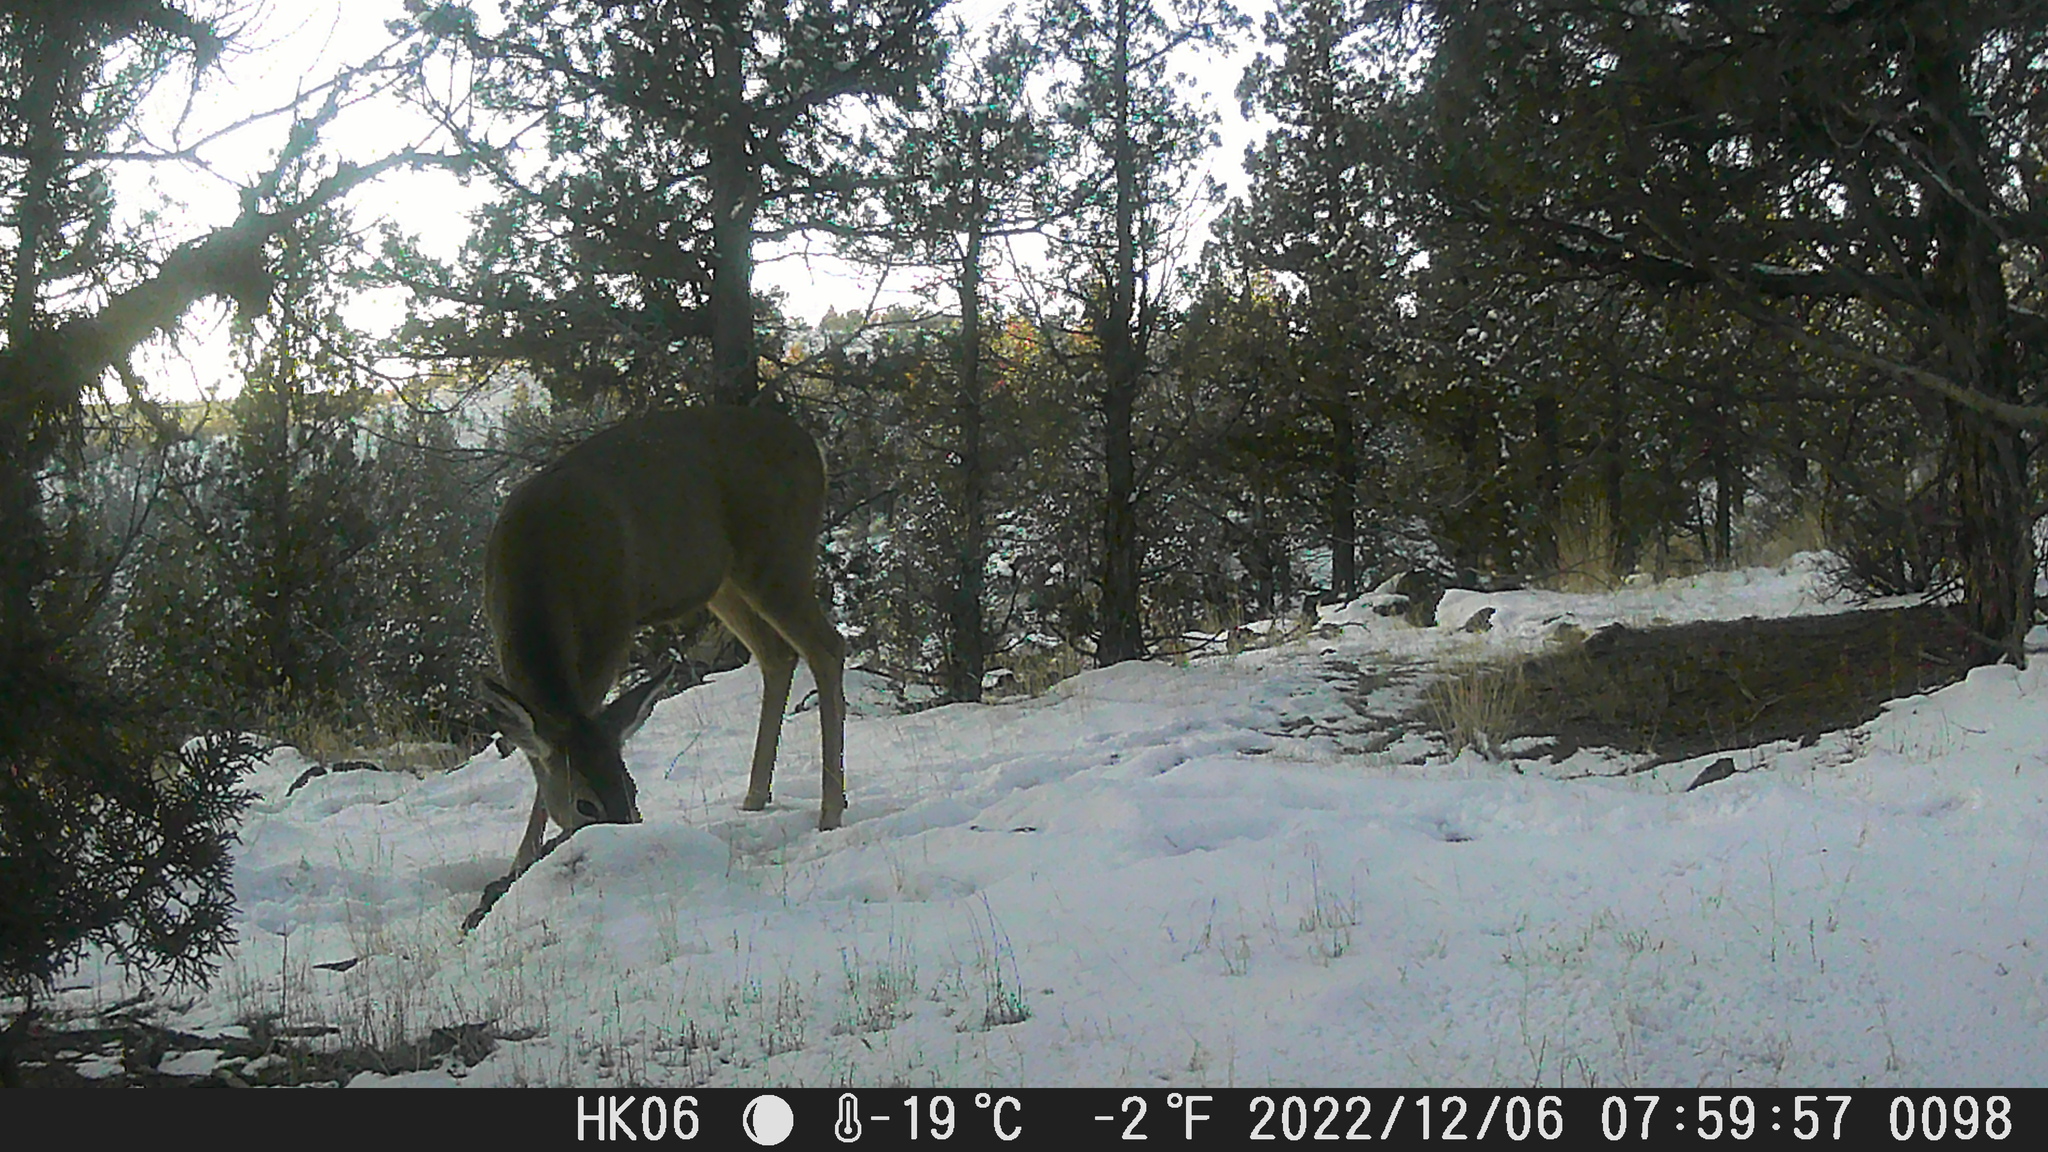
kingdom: Animalia
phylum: Chordata
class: Mammalia
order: Artiodactyla
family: Cervidae
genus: Odocoileus
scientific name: Odocoileus hemionus
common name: Mule deer
